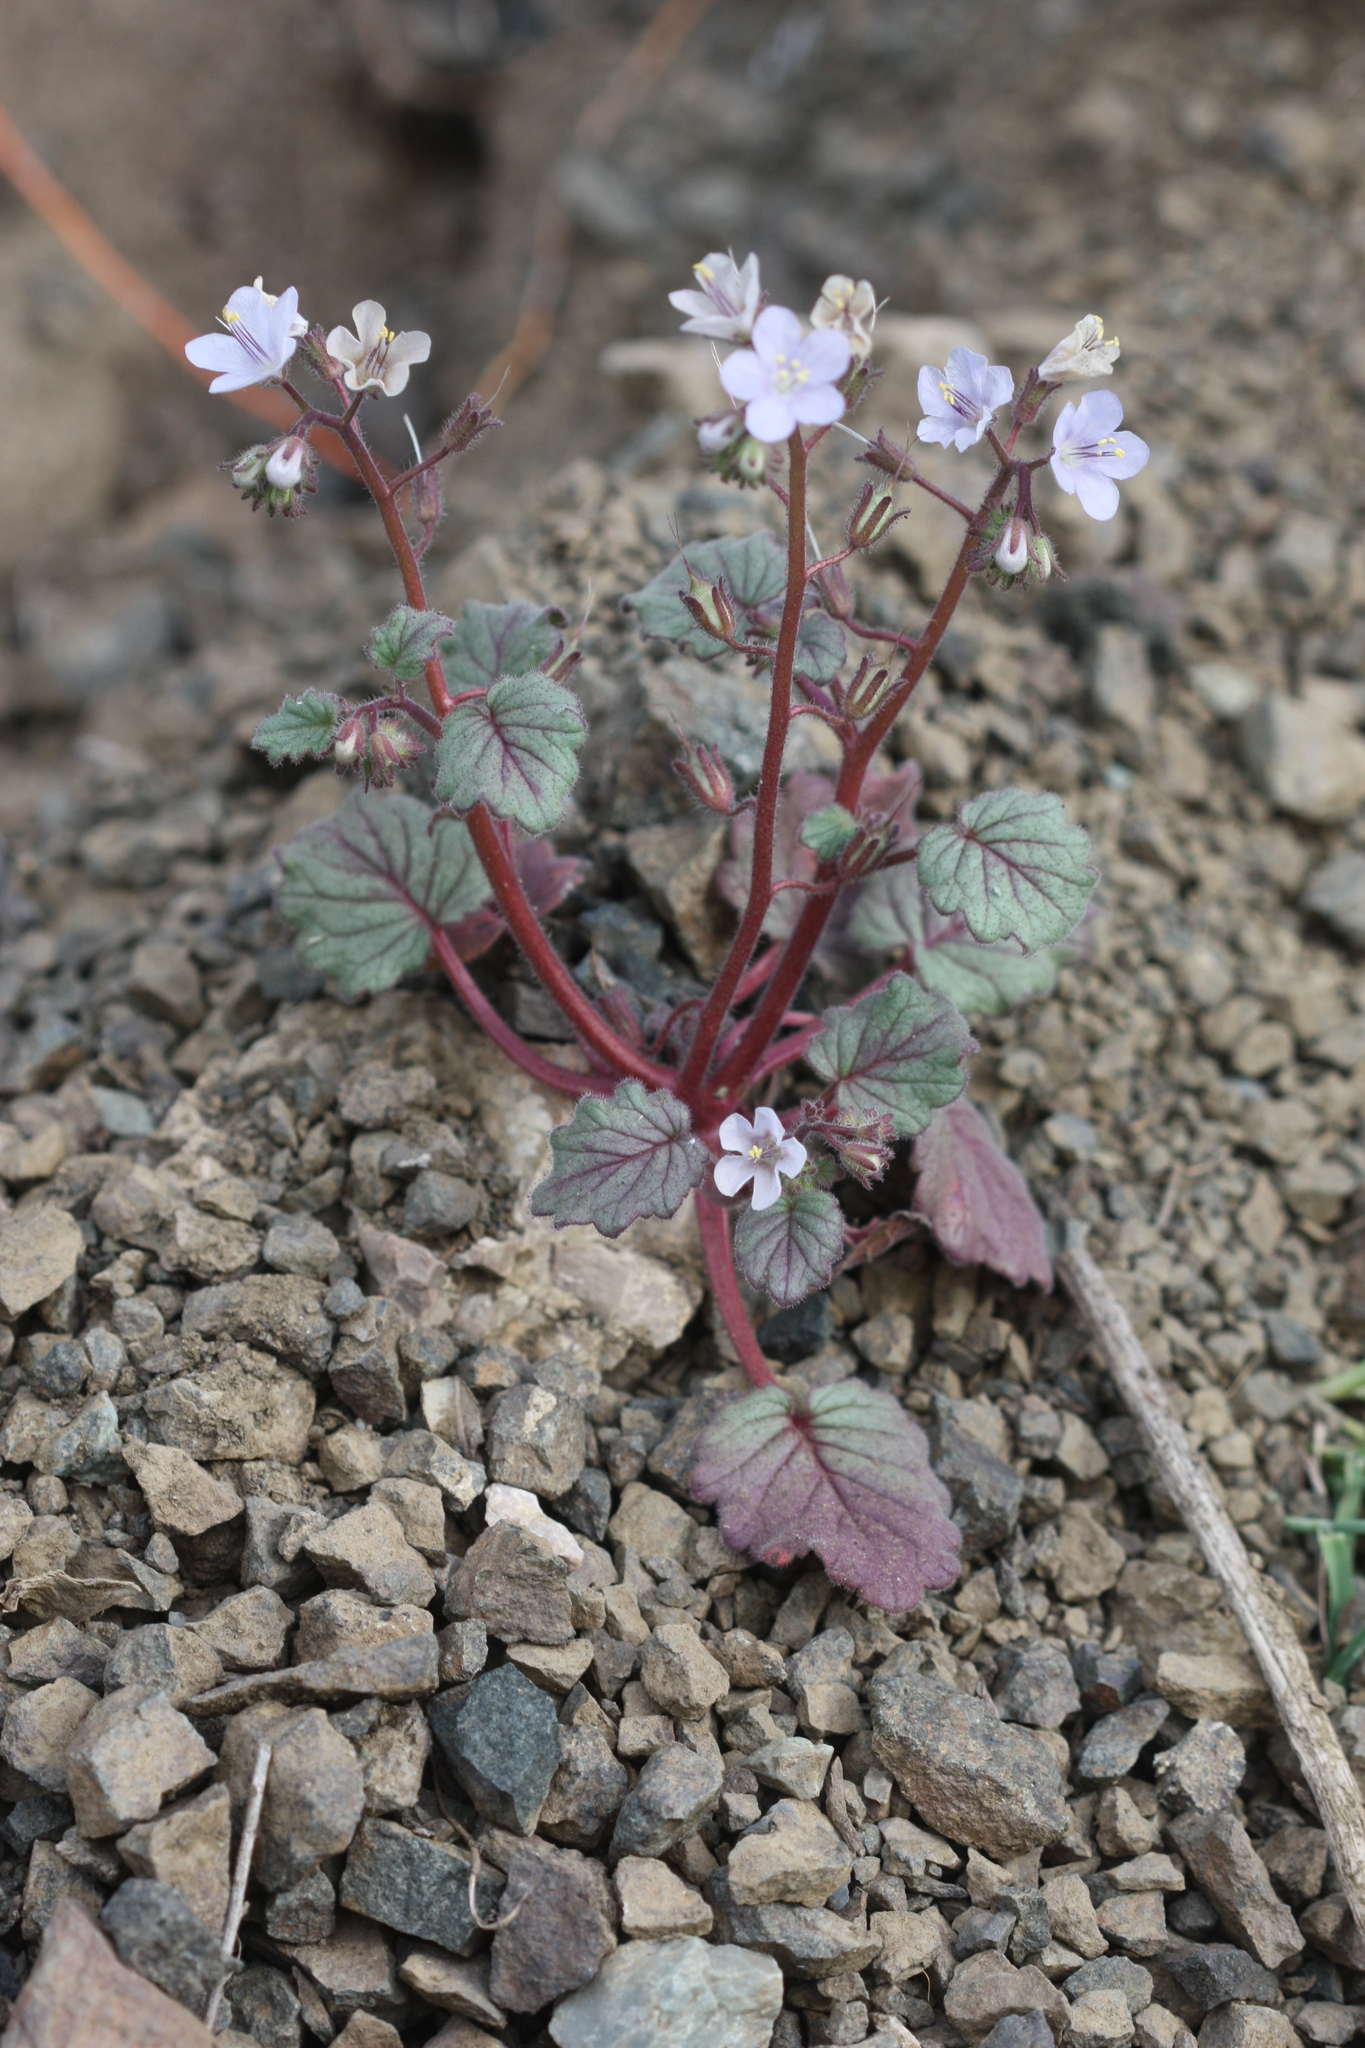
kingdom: Plantae
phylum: Tracheophyta
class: Magnoliopsida
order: Boraginales
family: Hydrophyllaceae
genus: Phacelia
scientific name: Phacelia longipes
